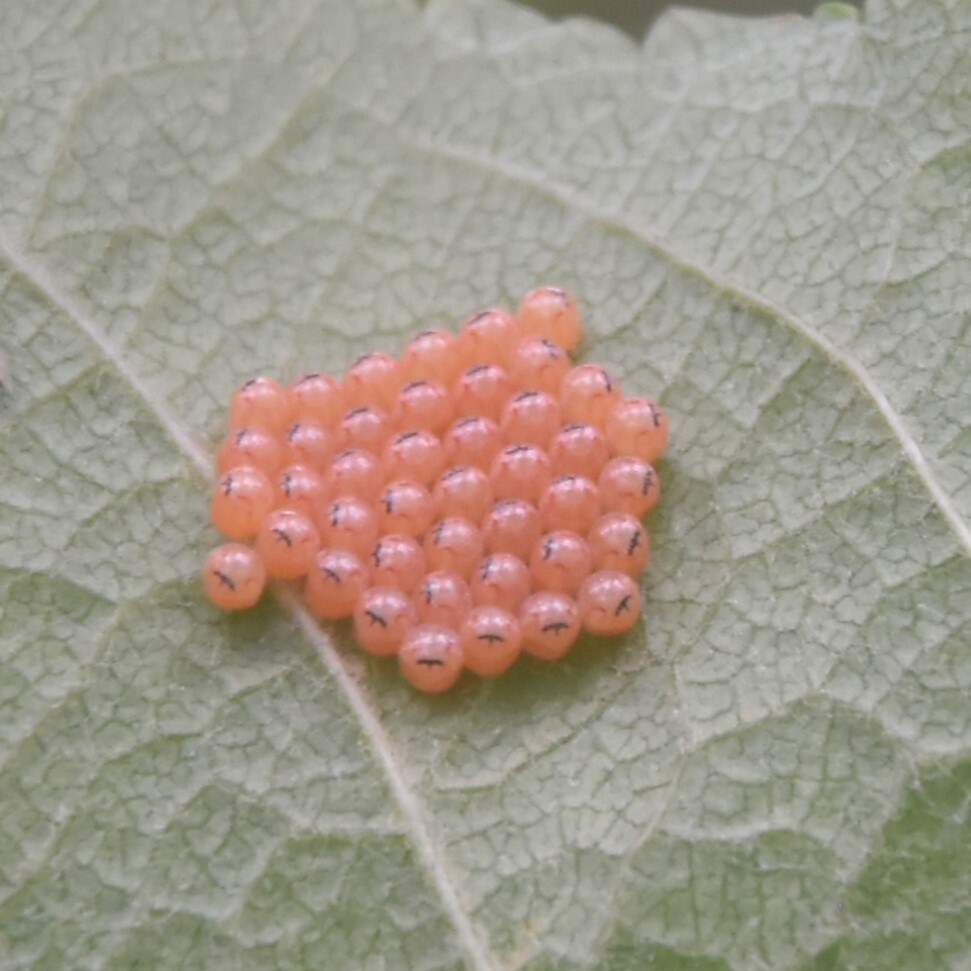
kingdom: Animalia
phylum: Arthropoda
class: Insecta
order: Hemiptera
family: Pentatomidae
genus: Lelia
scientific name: Lelia octopunctata
